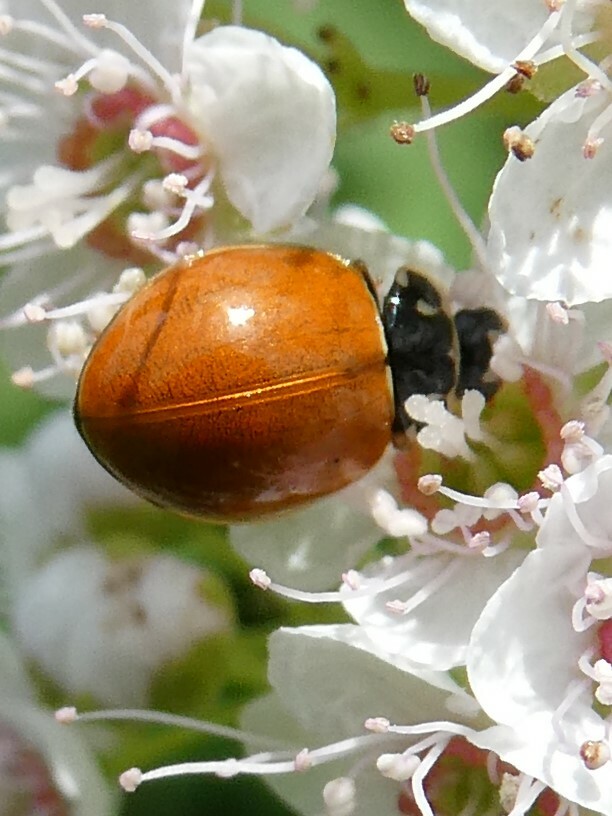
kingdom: Animalia
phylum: Arthropoda
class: Insecta
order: Coleoptera
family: Coccinellidae
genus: Cycloneda
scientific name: Cycloneda munda
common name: Polished lady beetle
